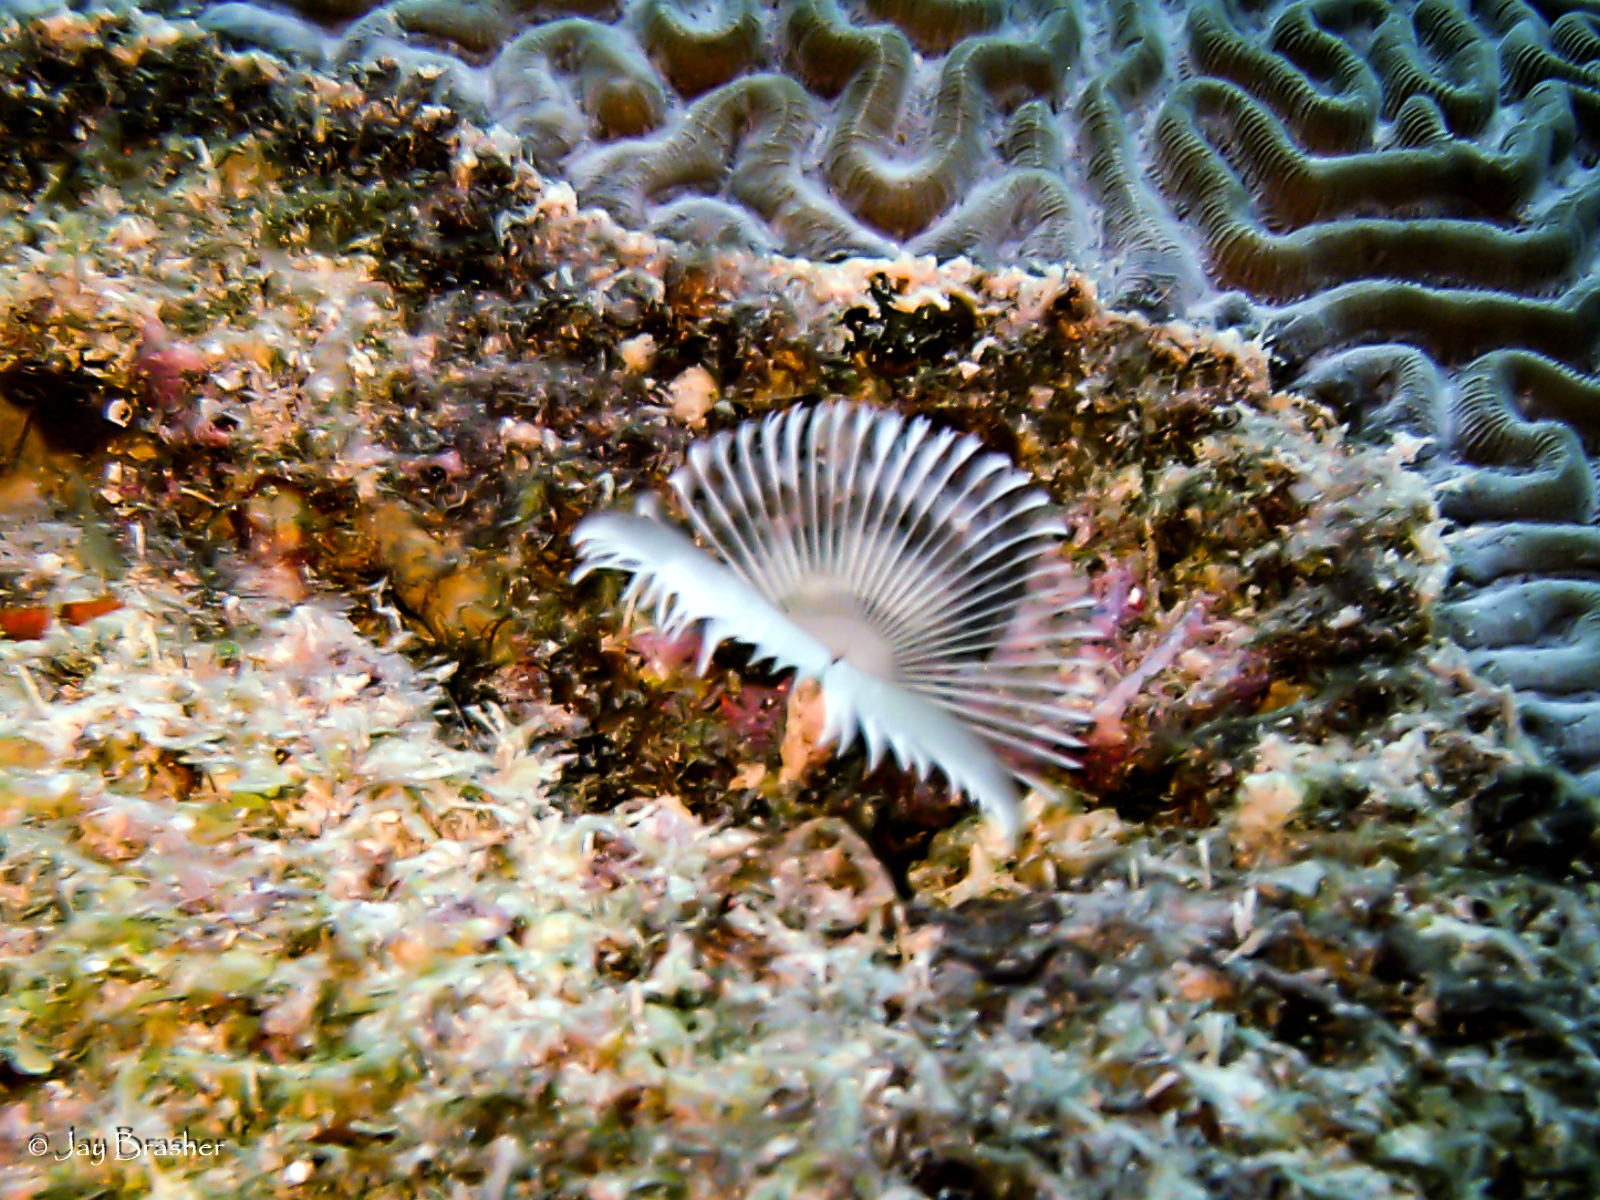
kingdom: Animalia
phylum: Annelida
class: Polychaeta
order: Sabellida
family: Sabellidae
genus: Anamobaea
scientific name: Anamobaea orstedii
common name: Split-crown feather duster
